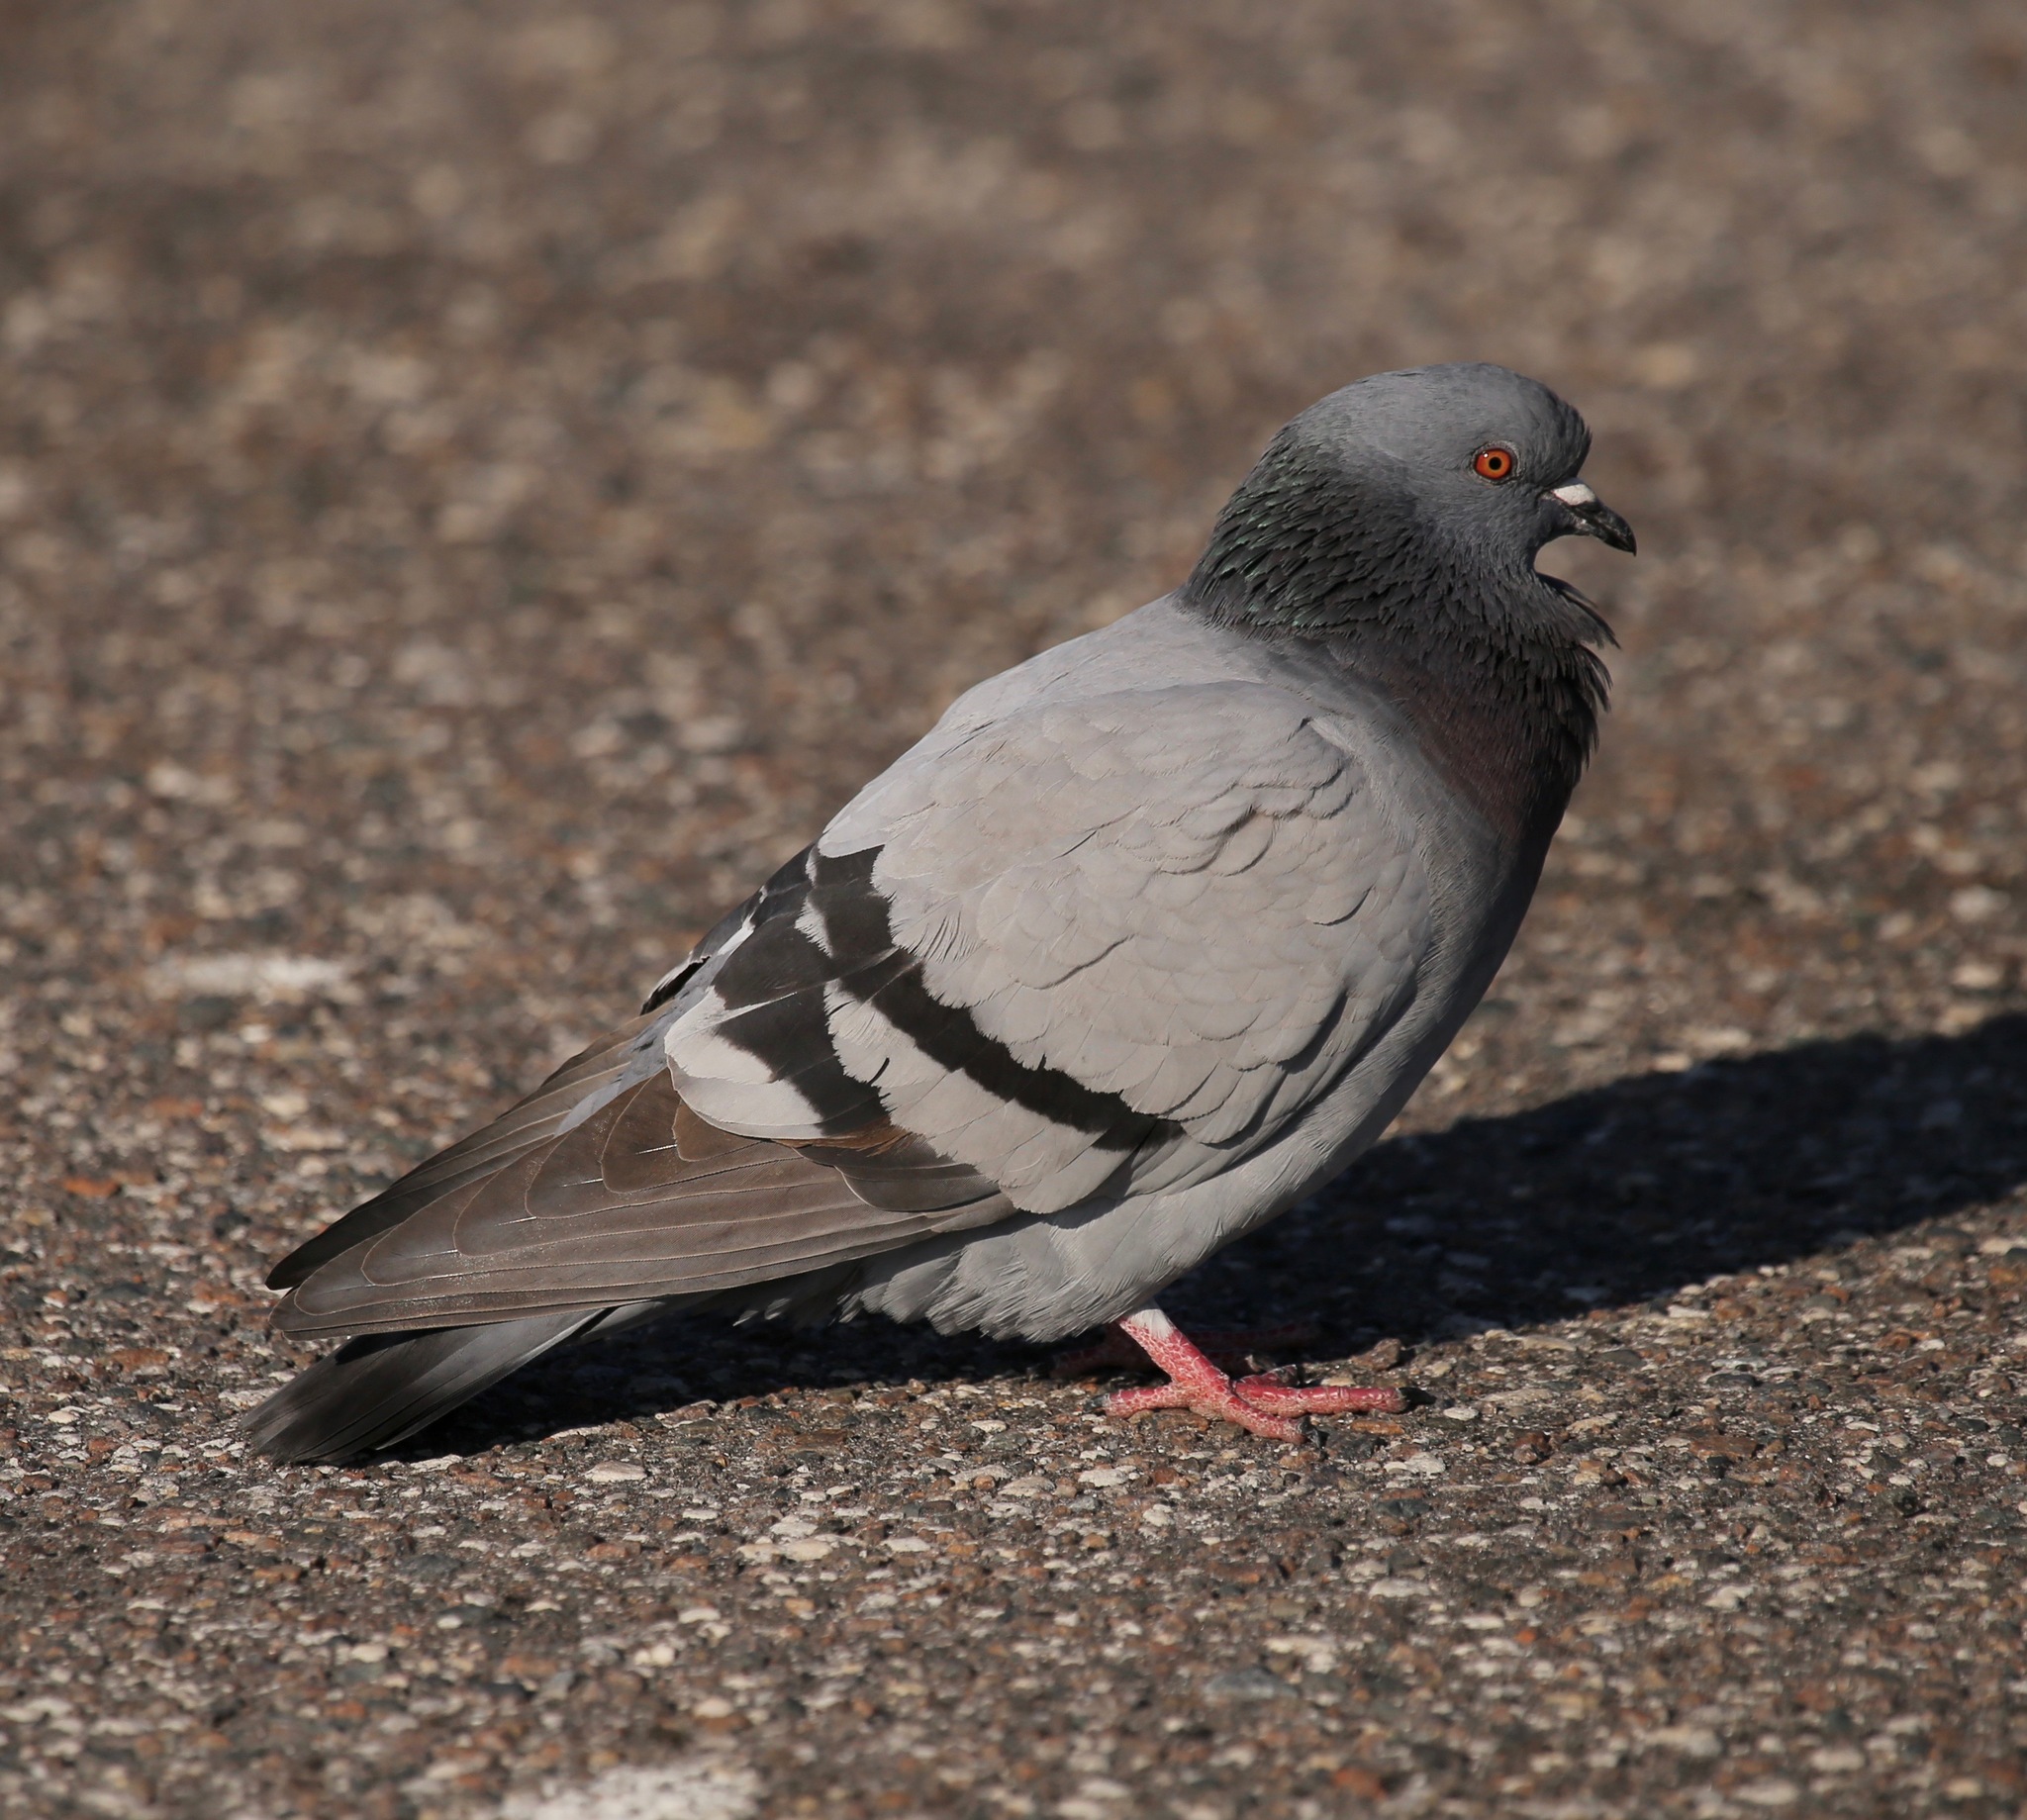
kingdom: Animalia
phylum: Chordata
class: Aves
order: Columbiformes
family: Columbidae
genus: Columba
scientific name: Columba livia
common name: Rock pigeon
